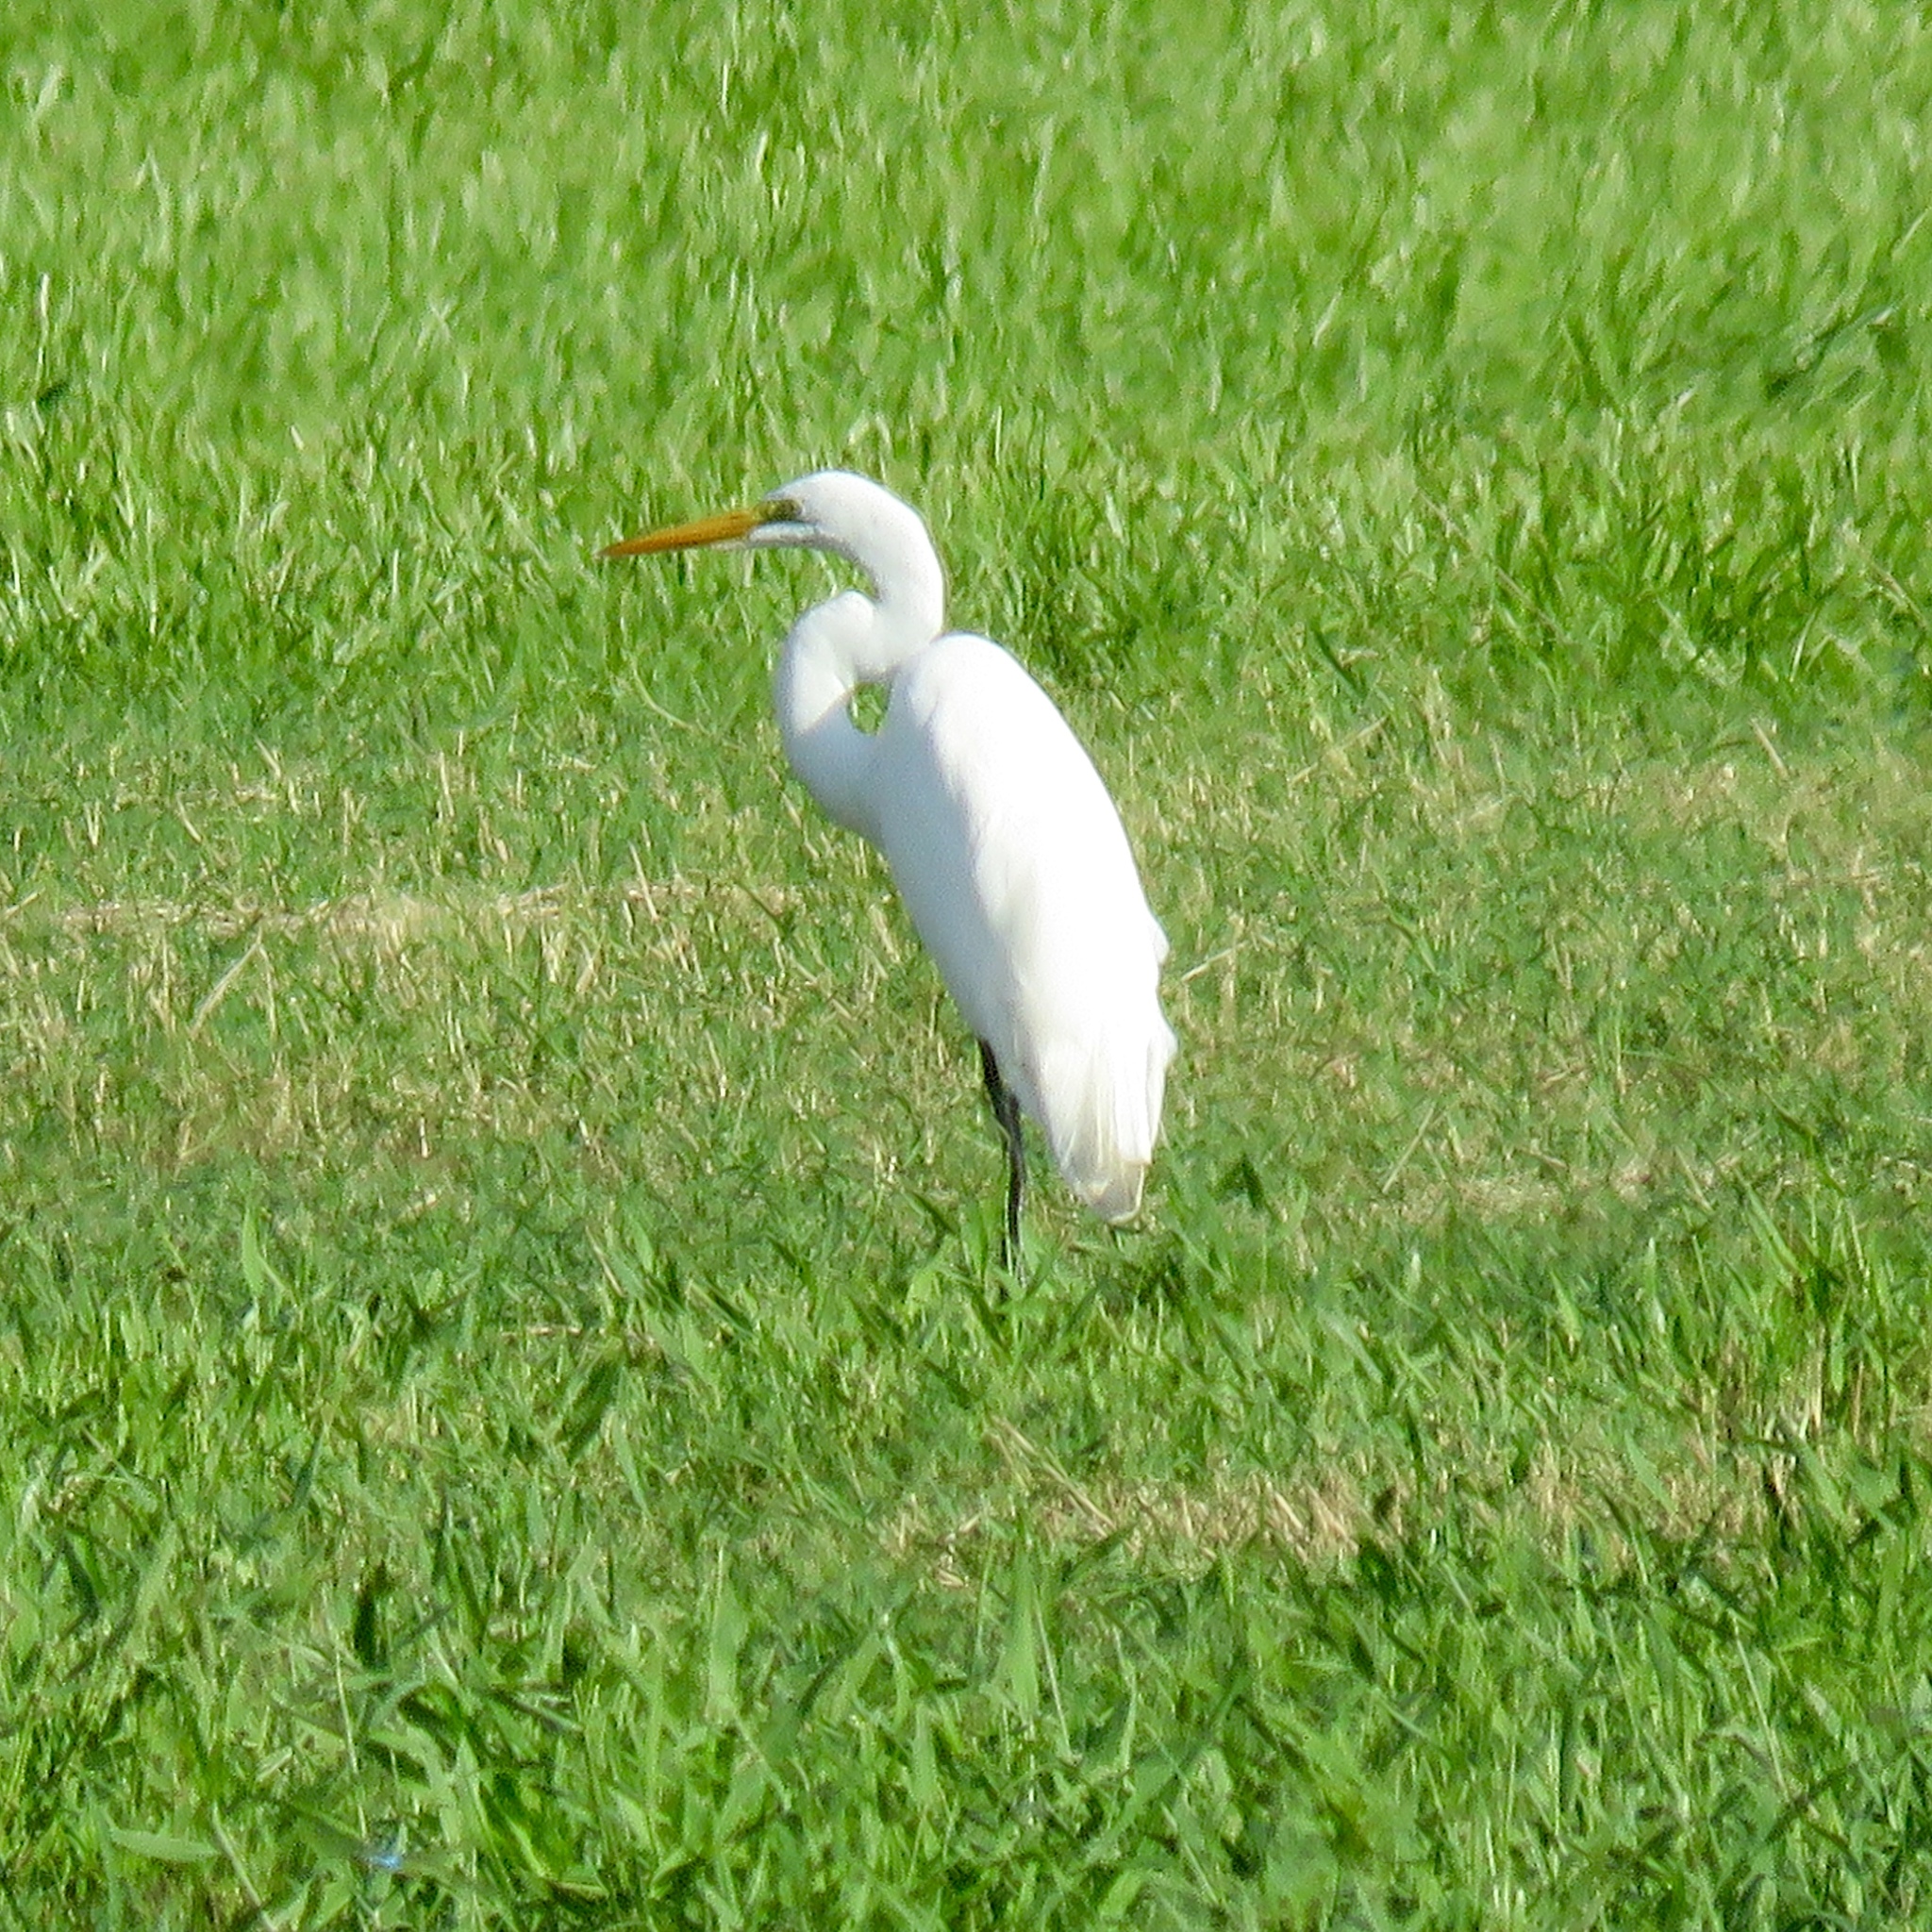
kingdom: Animalia
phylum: Chordata
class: Aves
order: Pelecaniformes
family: Ardeidae
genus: Ardea
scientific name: Ardea alba
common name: Great egret
